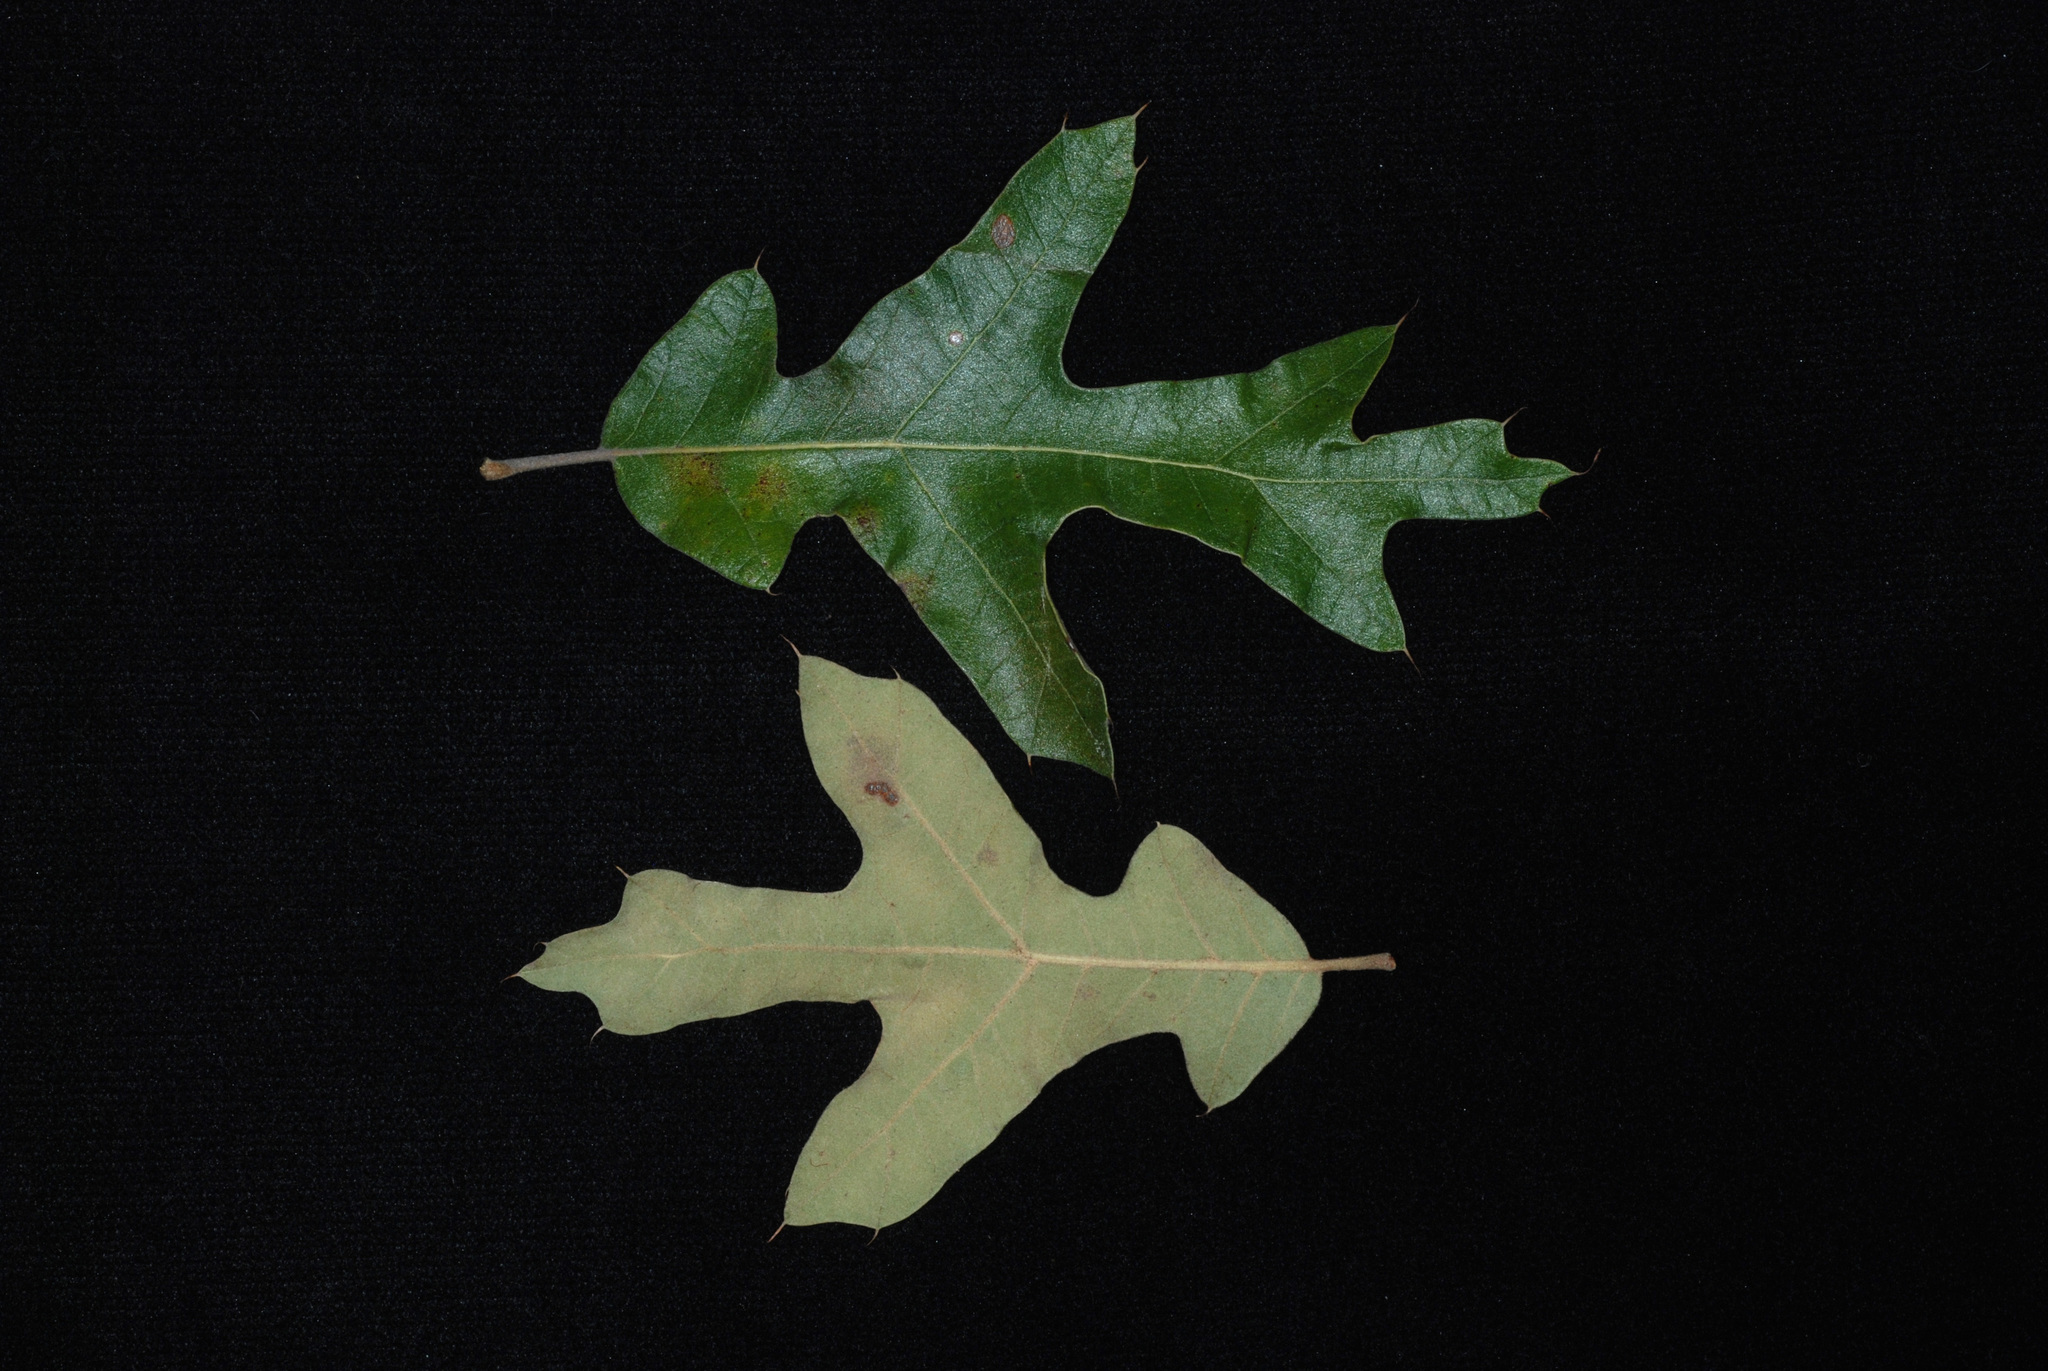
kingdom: Plantae
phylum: Tracheophyta
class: Magnoliopsida
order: Fagales
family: Fagaceae
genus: Quercus
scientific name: Quercus caesariensis
